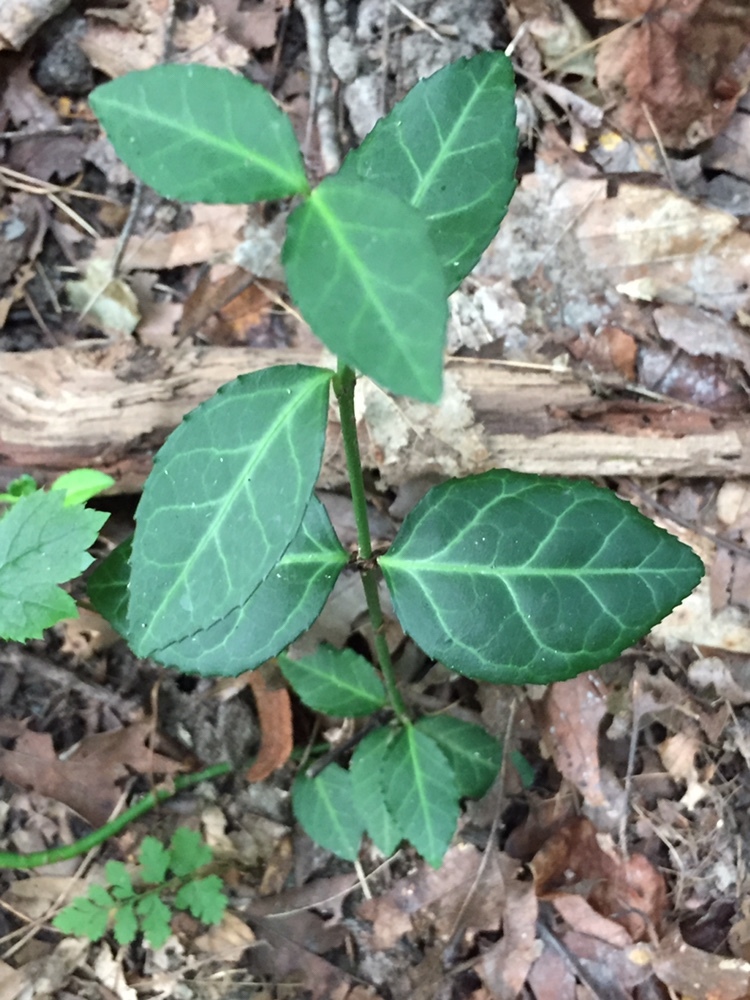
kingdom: Plantae
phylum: Tracheophyta
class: Magnoliopsida
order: Celastrales
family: Celastraceae
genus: Euonymus
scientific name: Euonymus fortunei
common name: Climbing euonymus
